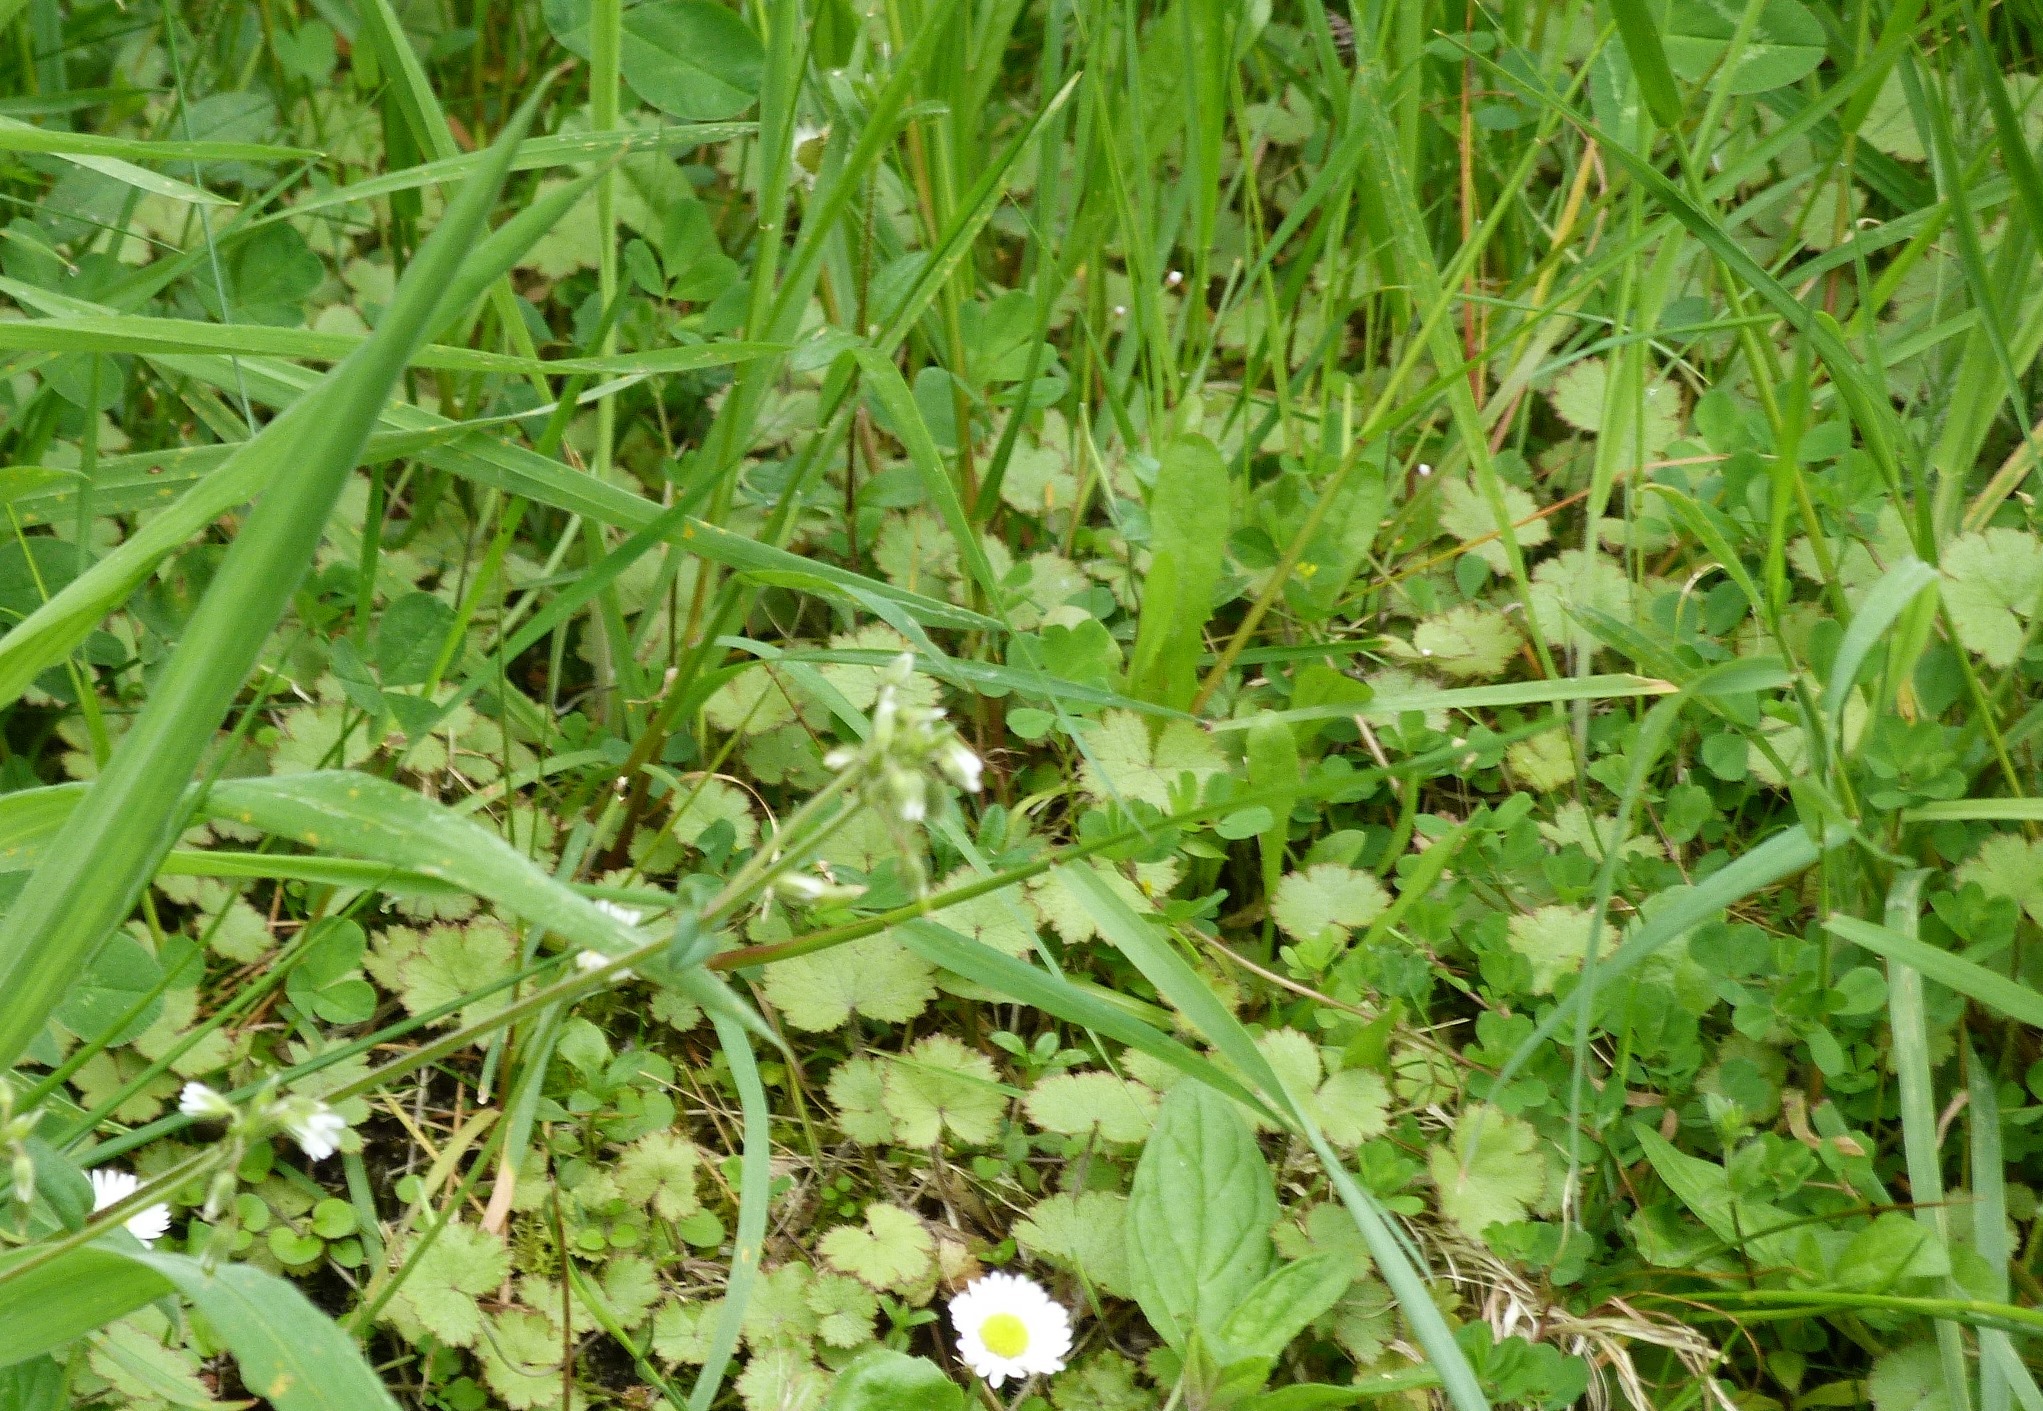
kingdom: Plantae
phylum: Tracheophyta
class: Magnoliopsida
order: Apiales
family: Araliaceae
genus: Hydrocotyle
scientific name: Hydrocotyle moschata
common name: Hairy pennywort
